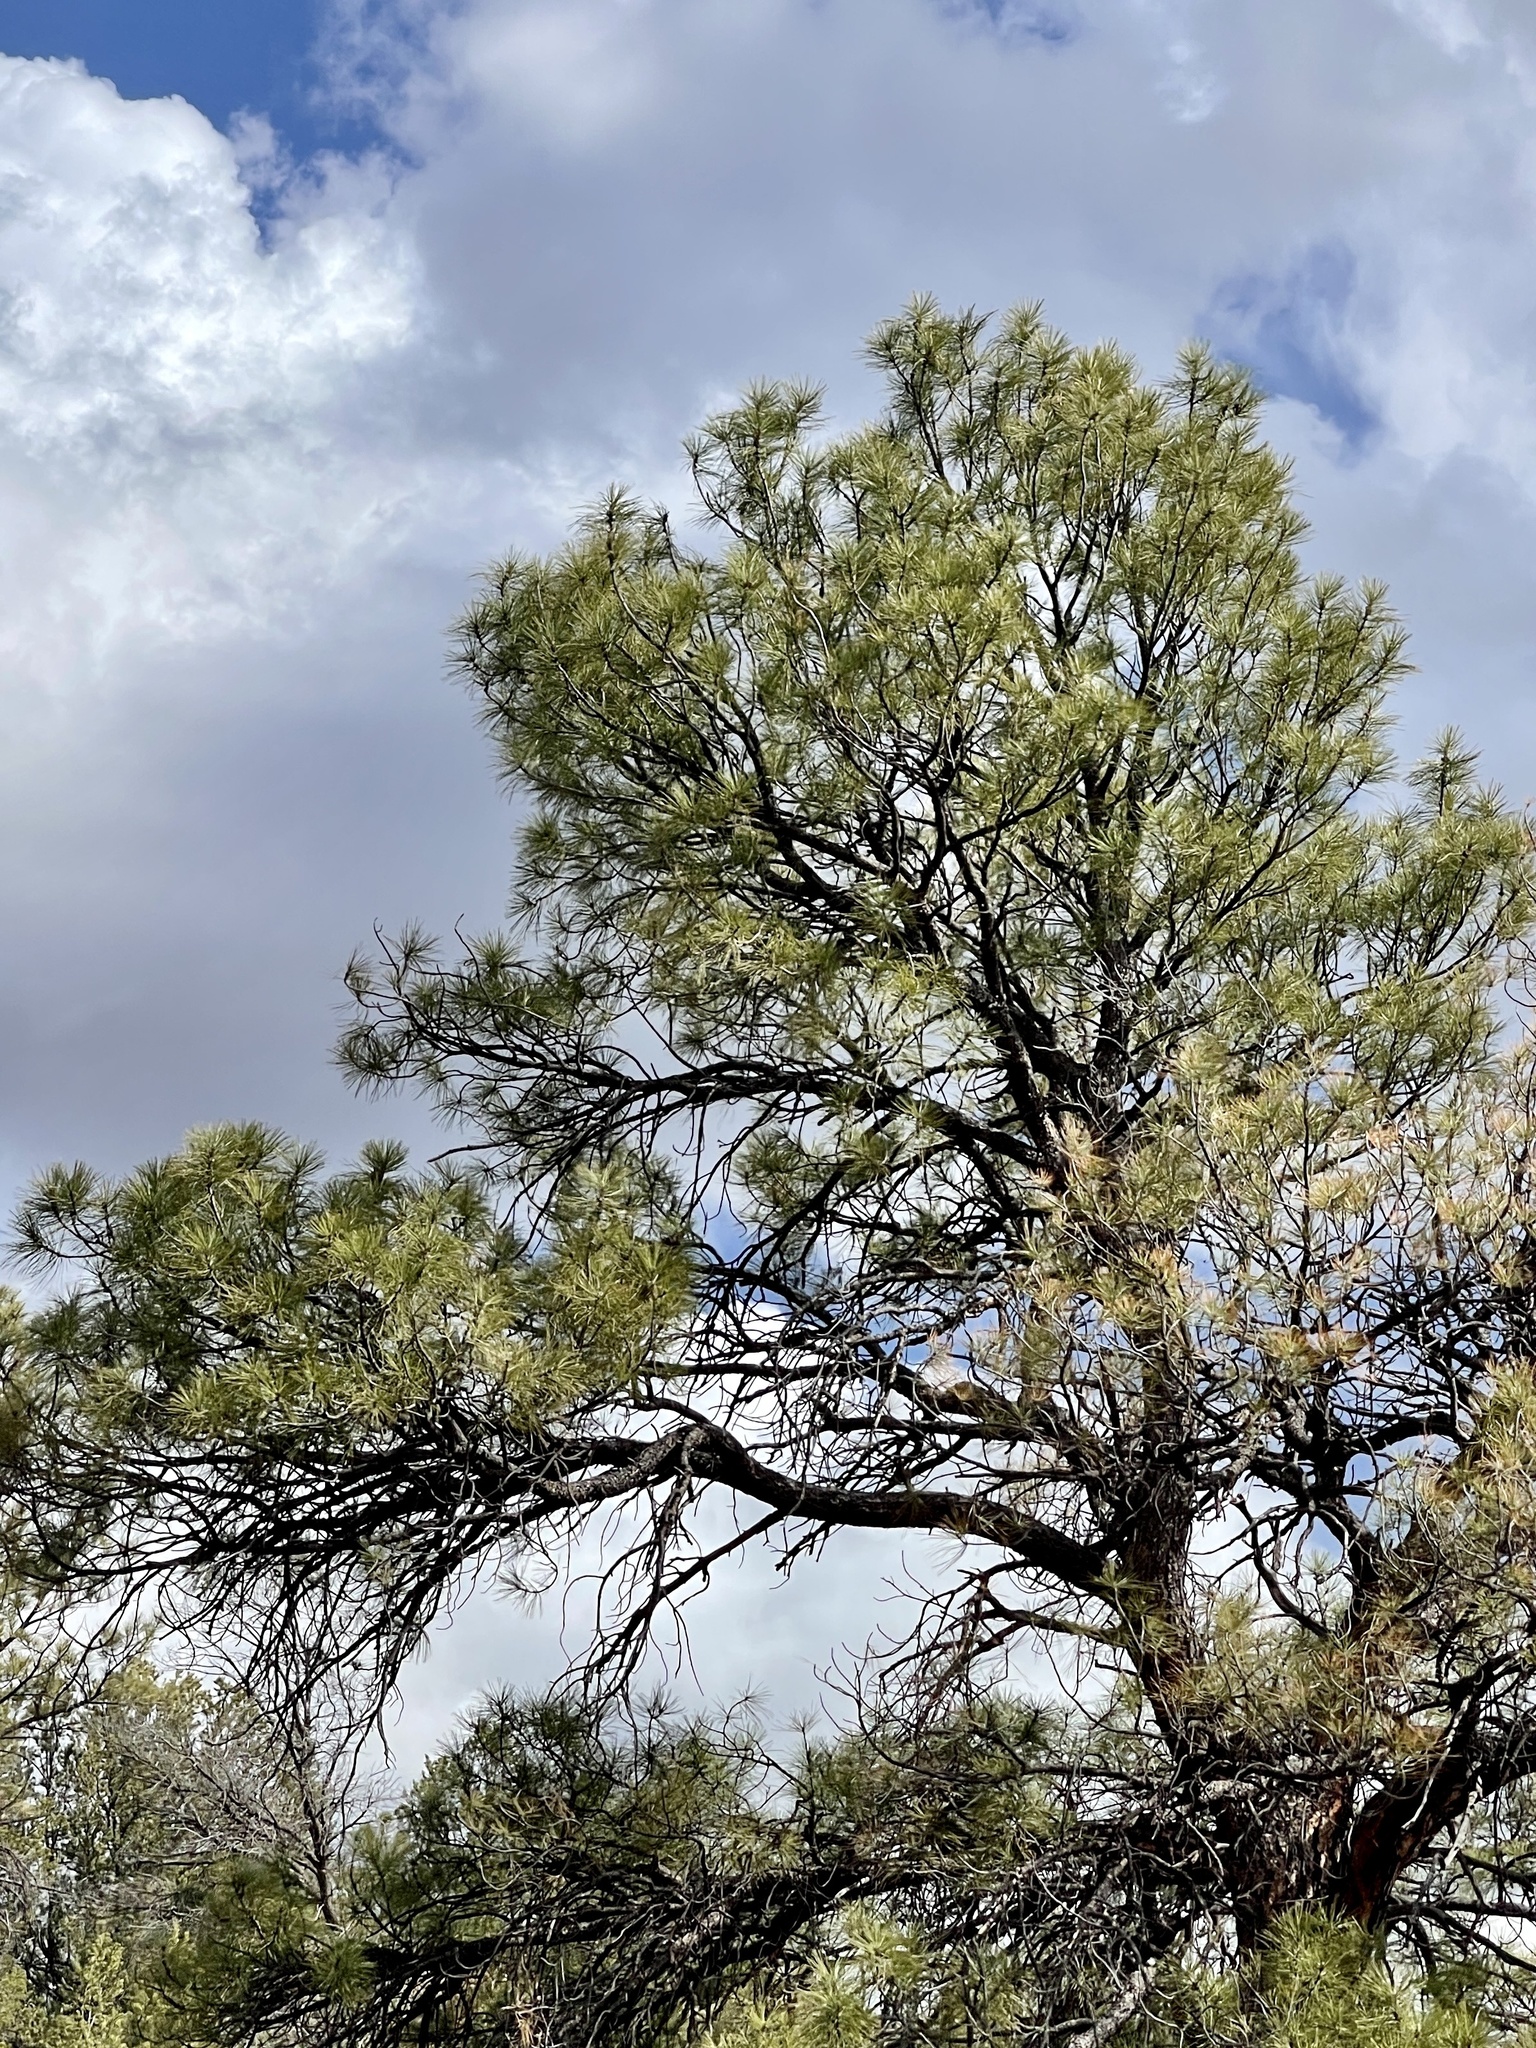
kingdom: Plantae
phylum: Tracheophyta
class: Pinopsida
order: Pinales
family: Pinaceae
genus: Pinus
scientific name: Pinus ponderosa
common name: Western yellow-pine
